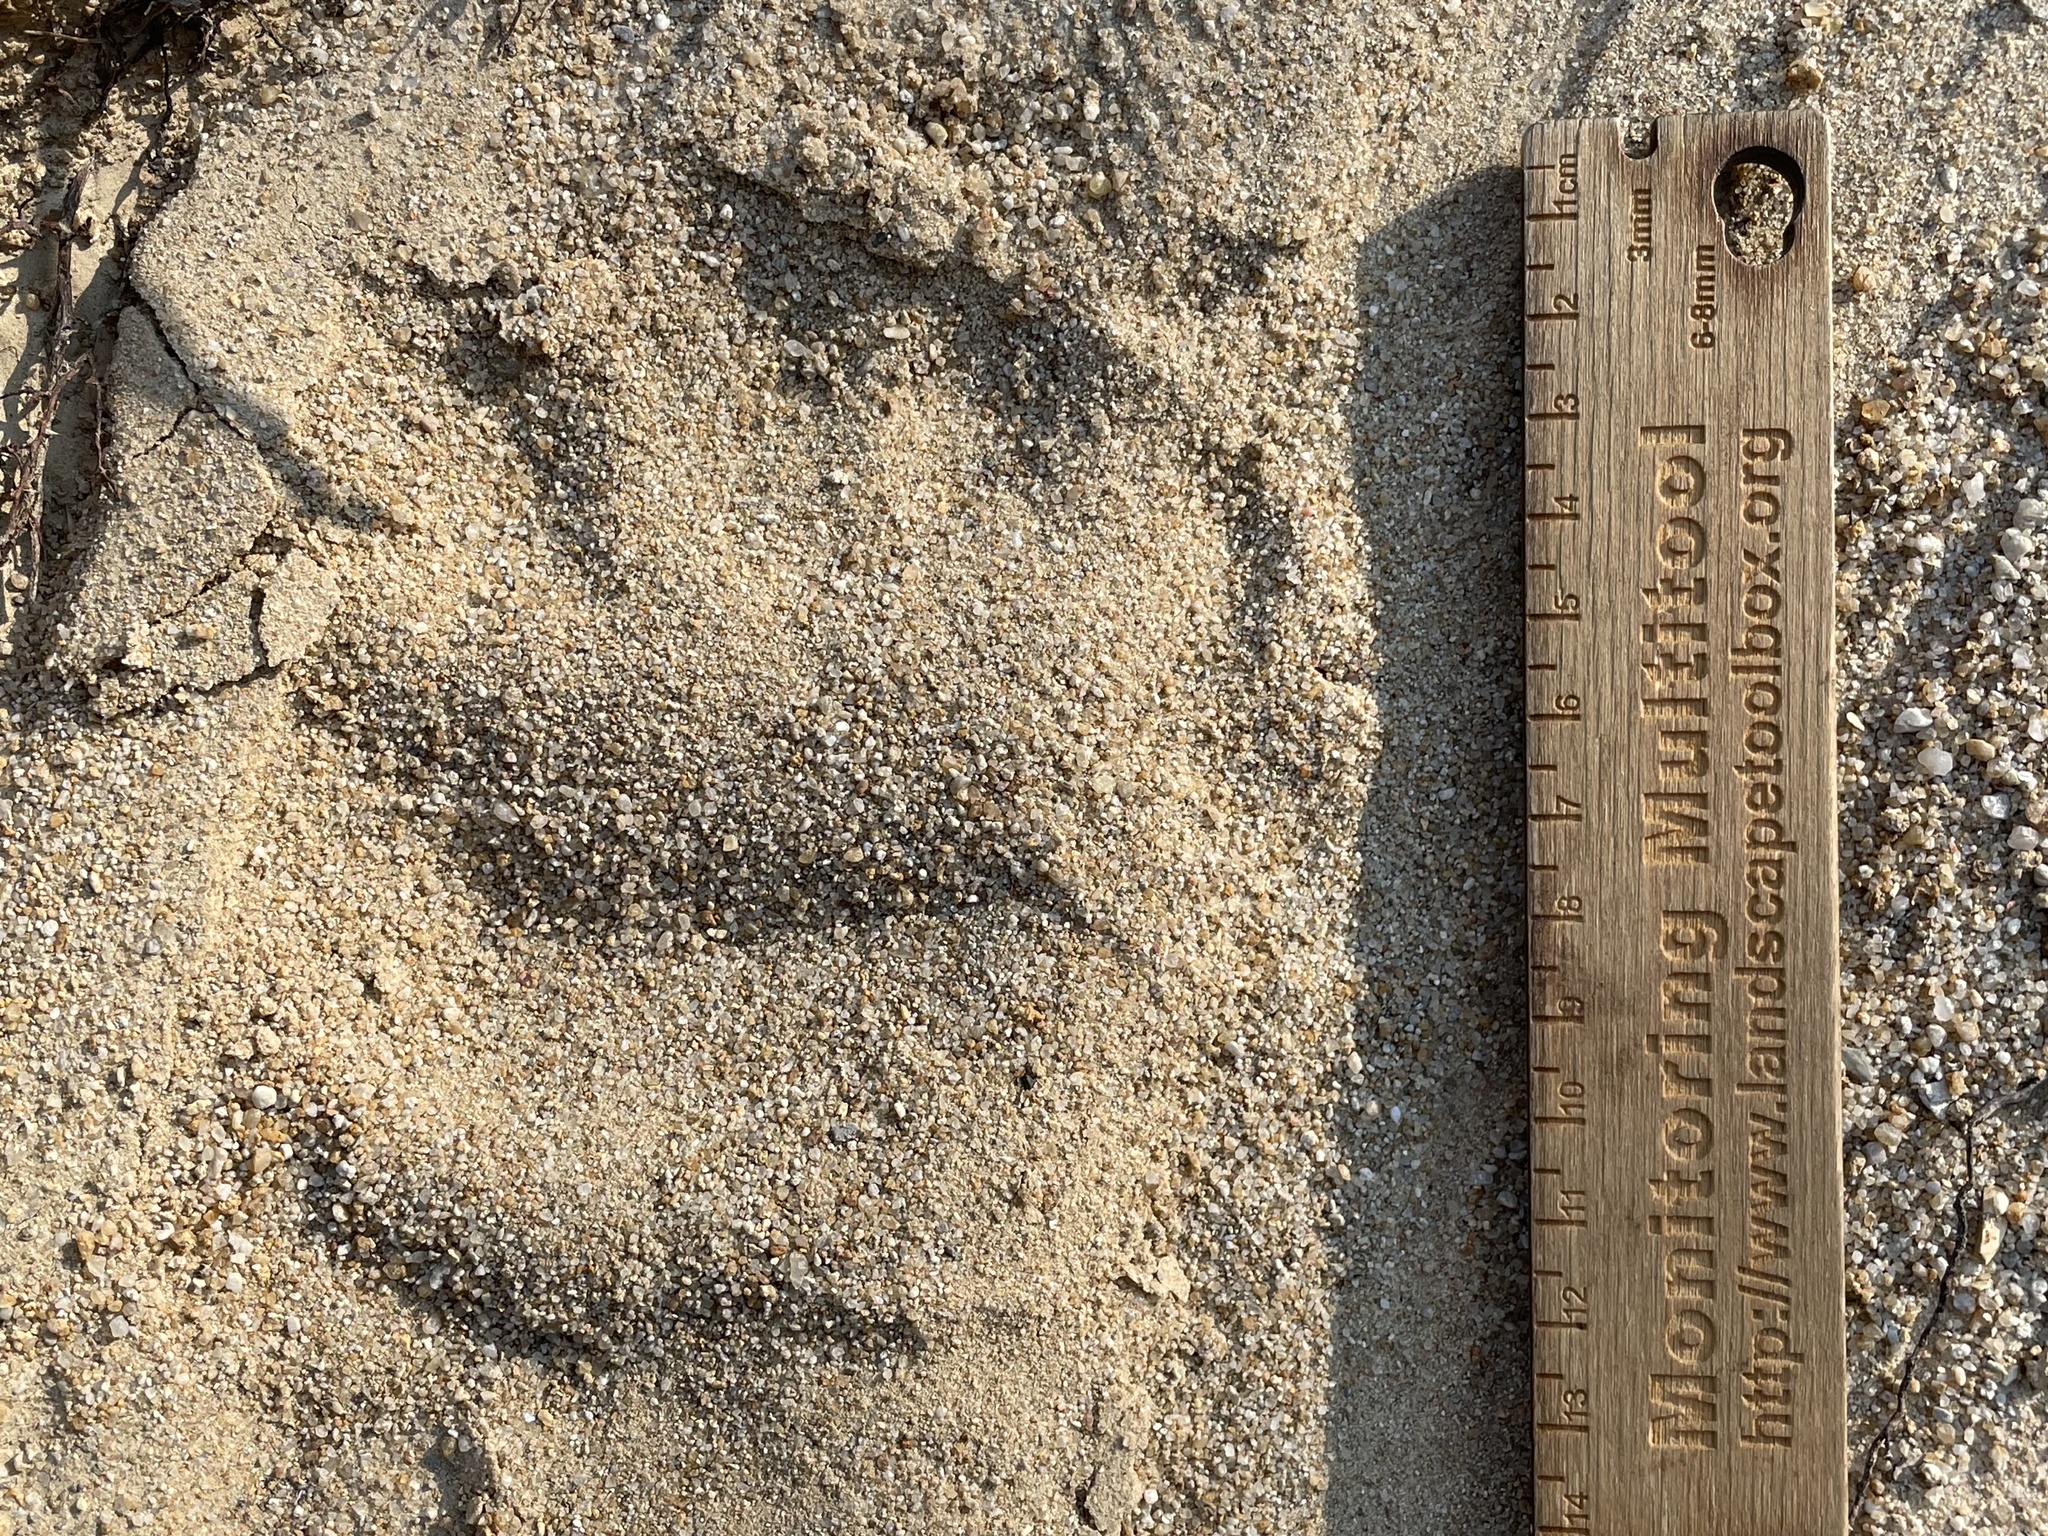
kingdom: Animalia
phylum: Chordata
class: Mammalia
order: Carnivora
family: Ursidae
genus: Ursus
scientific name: Ursus americanus
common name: American black bear
